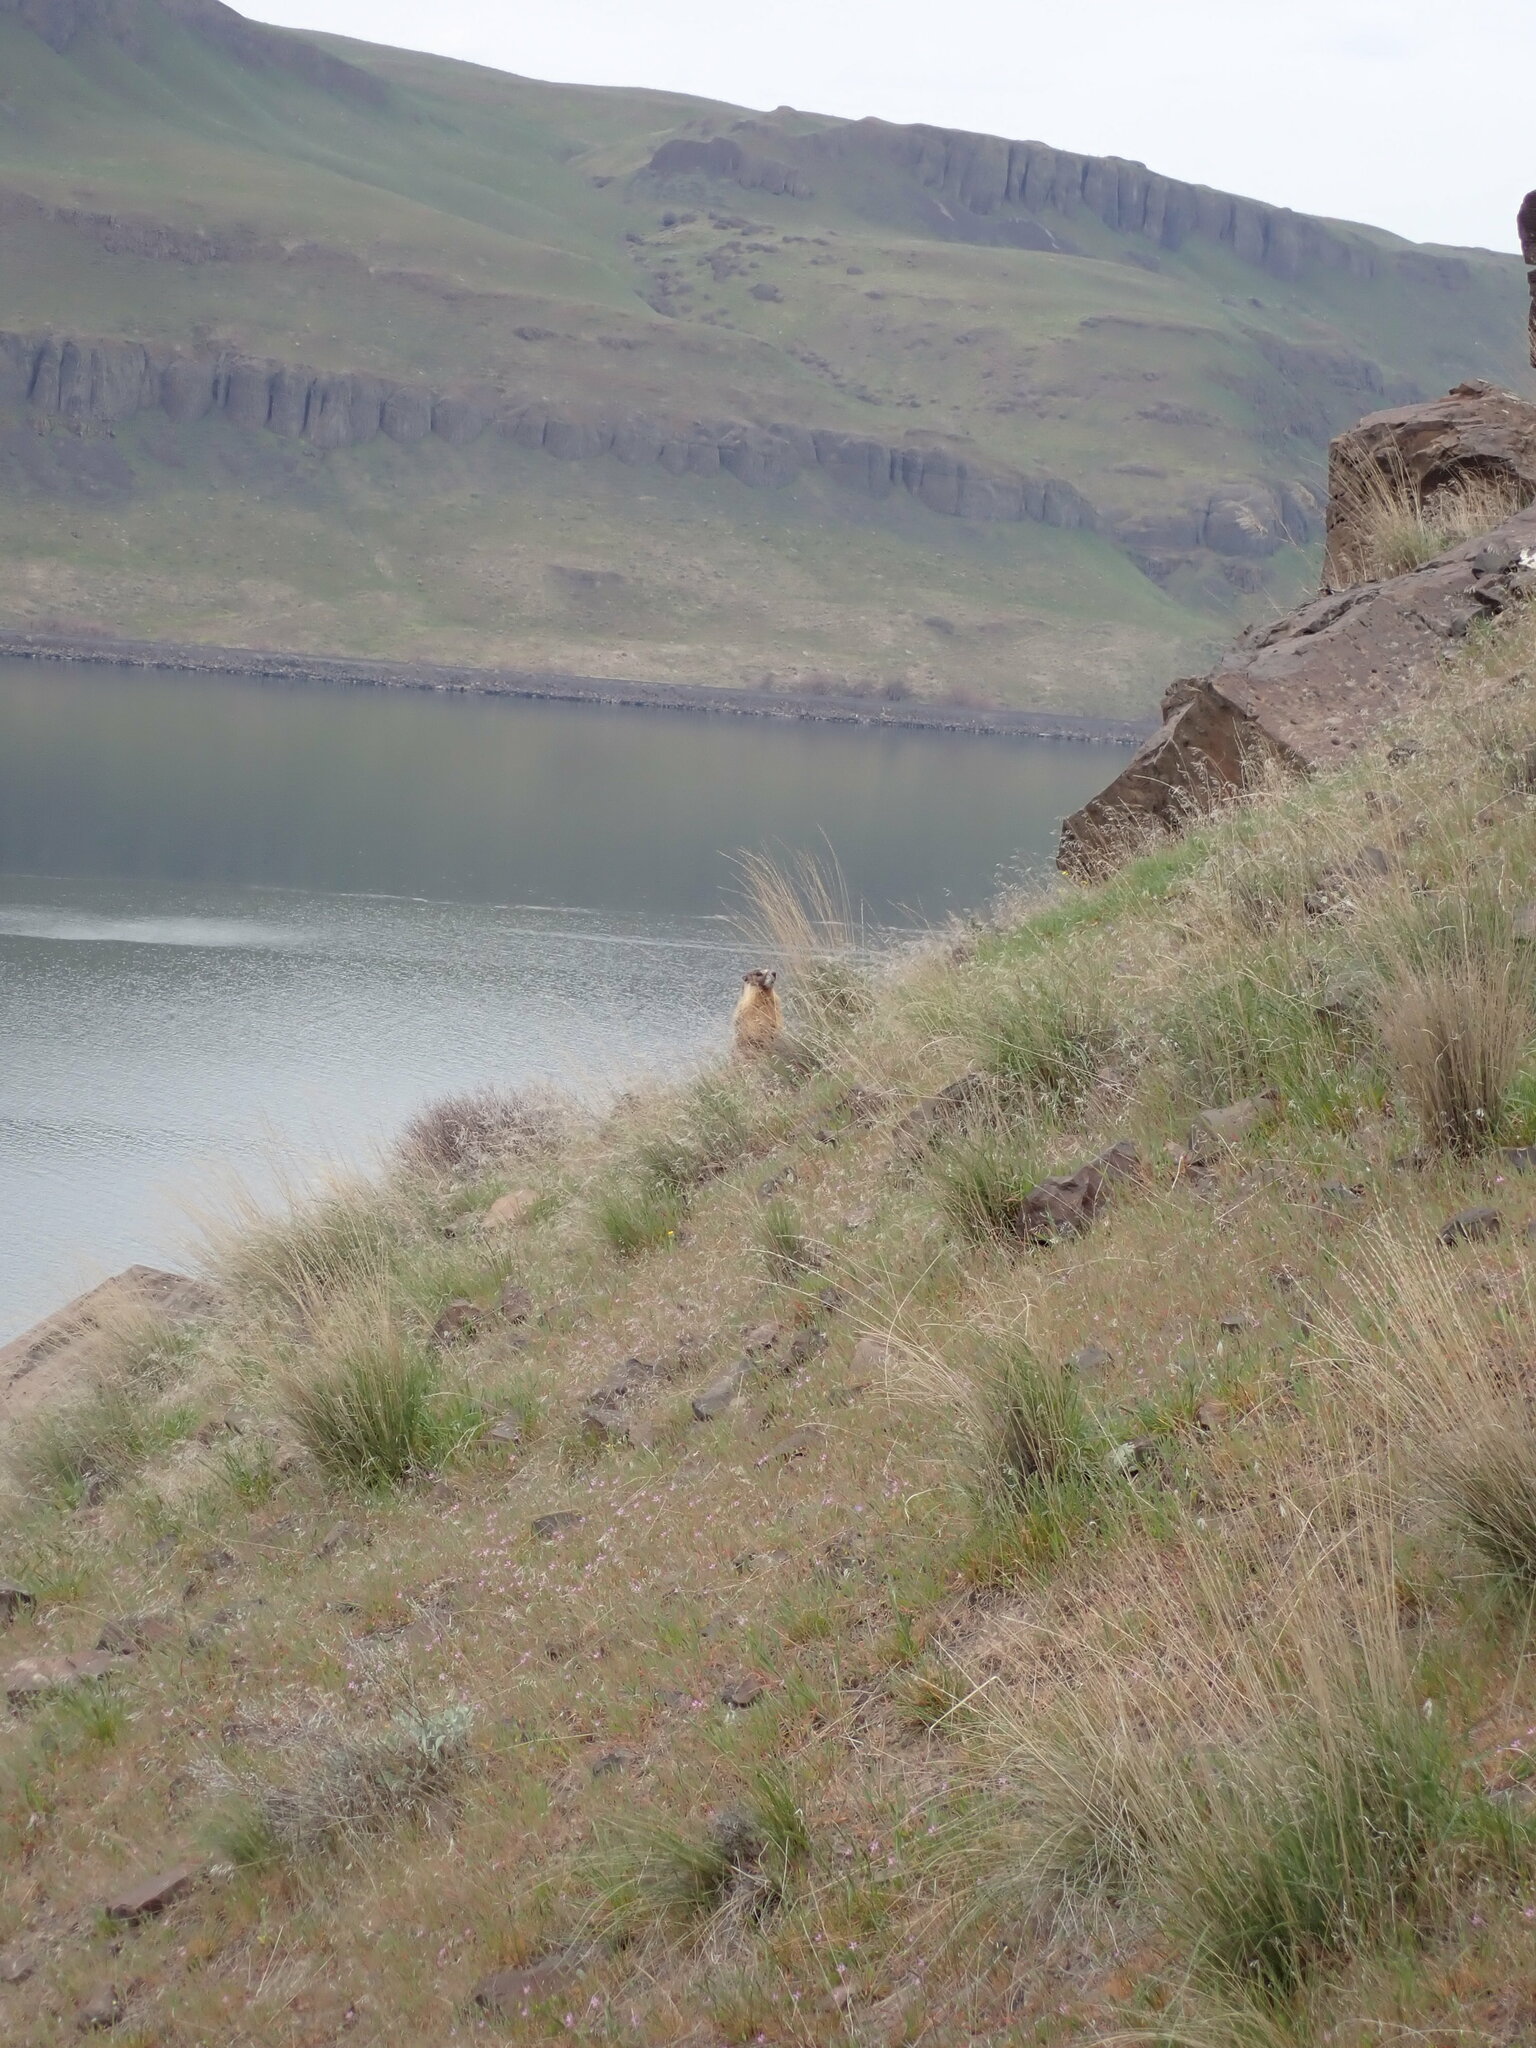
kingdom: Animalia
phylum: Chordata
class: Mammalia
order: Rodentia
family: Sciuridae
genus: Marmota
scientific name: Marmota flaviventris
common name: Yellow-bellied marmot
